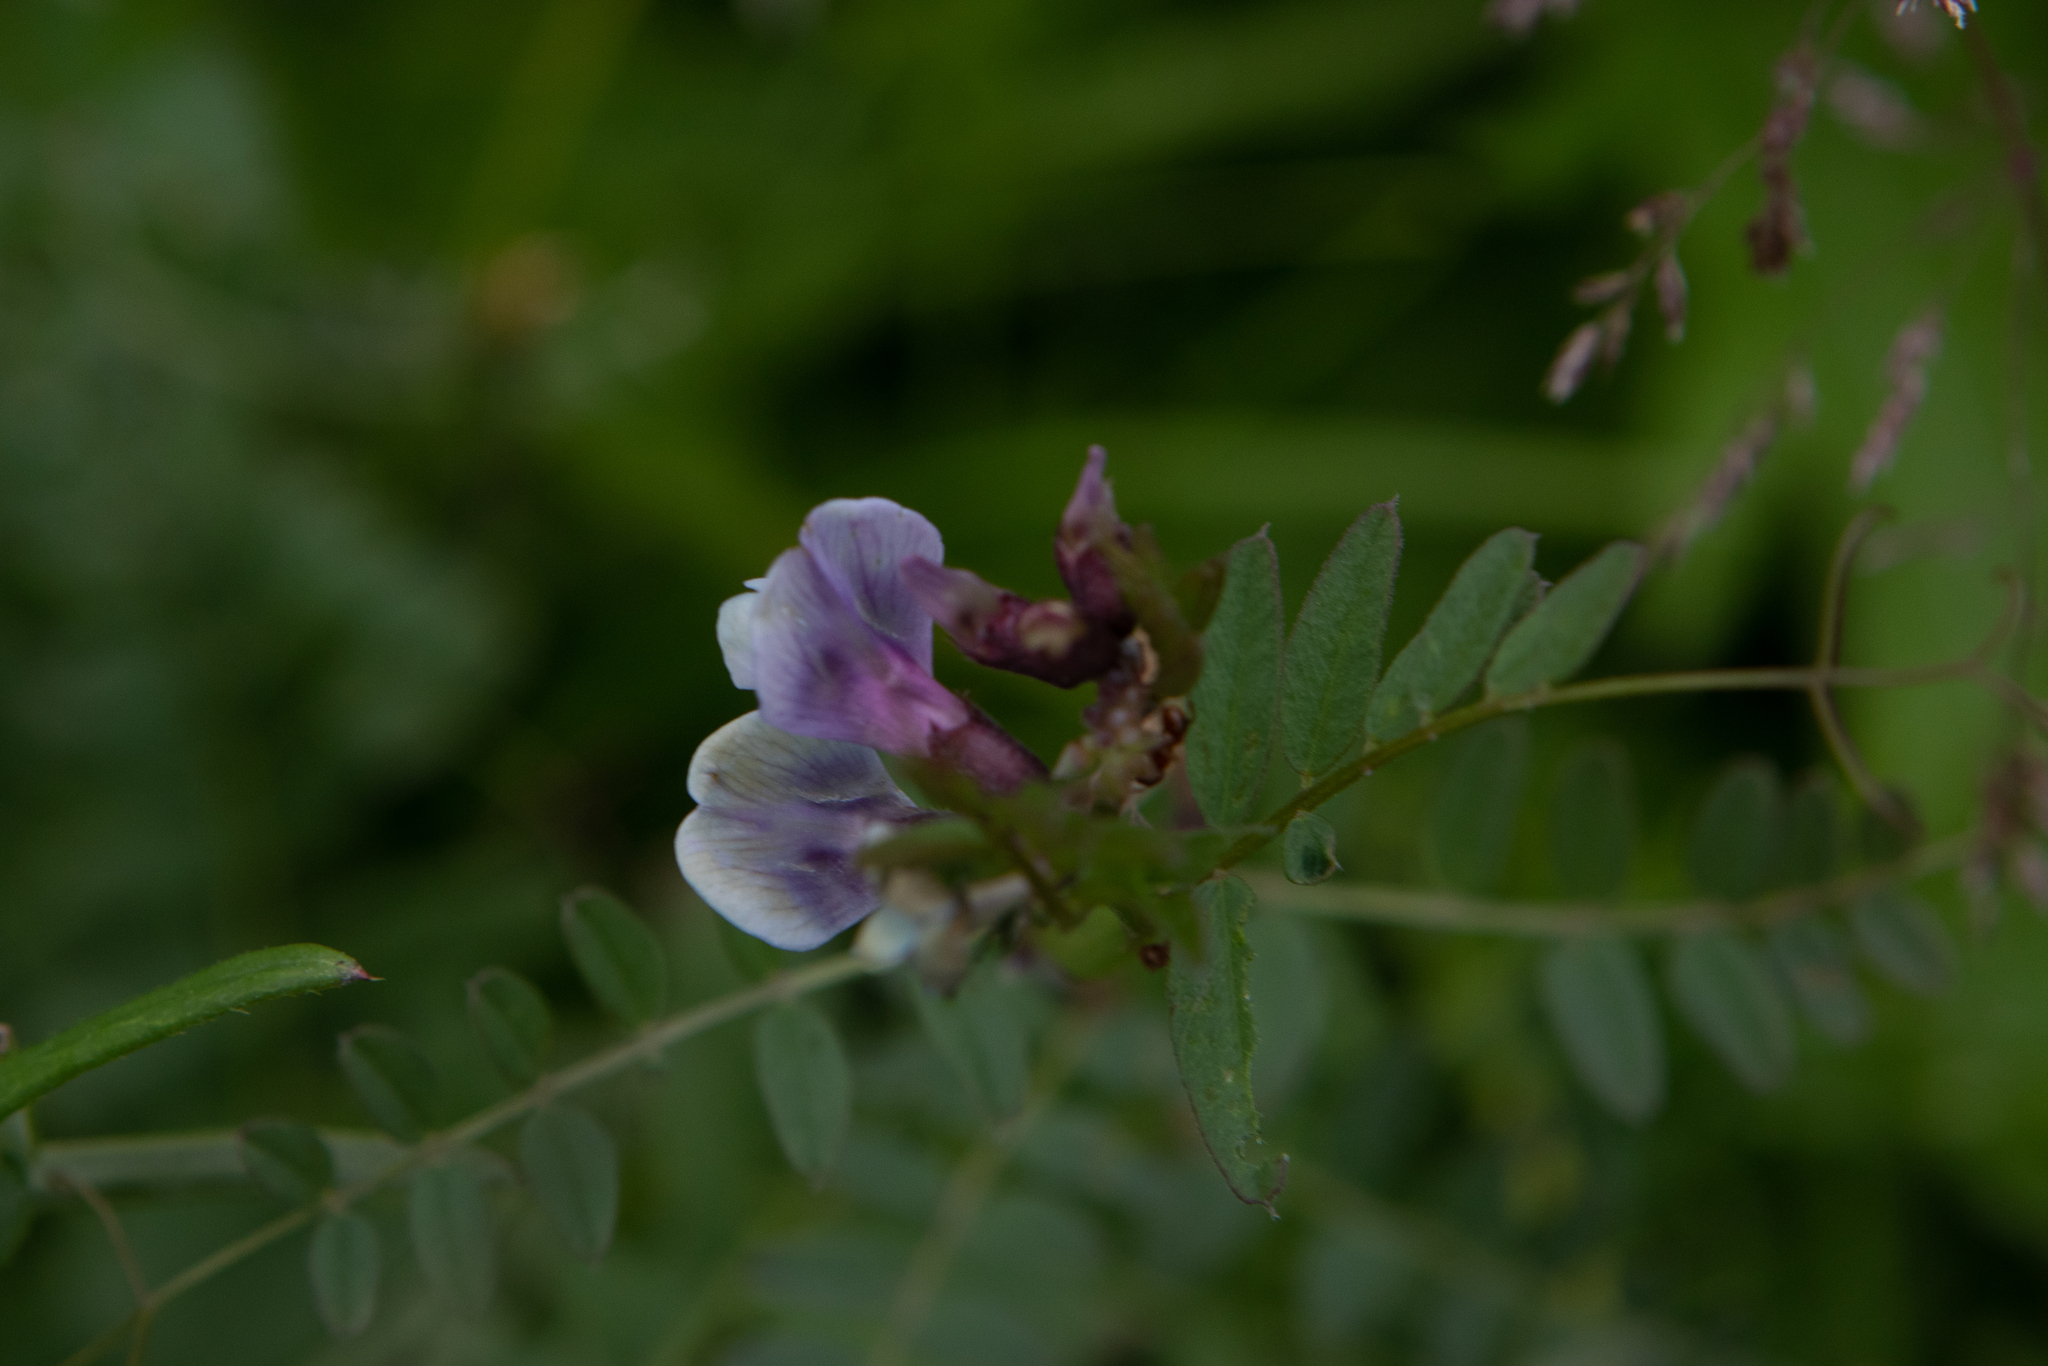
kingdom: Plantae
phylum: Tracheophyta
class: Magnoliopsida
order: Fabales
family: Fabaceae
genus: Vicia
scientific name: Vicia sepium
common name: Bush vetch
